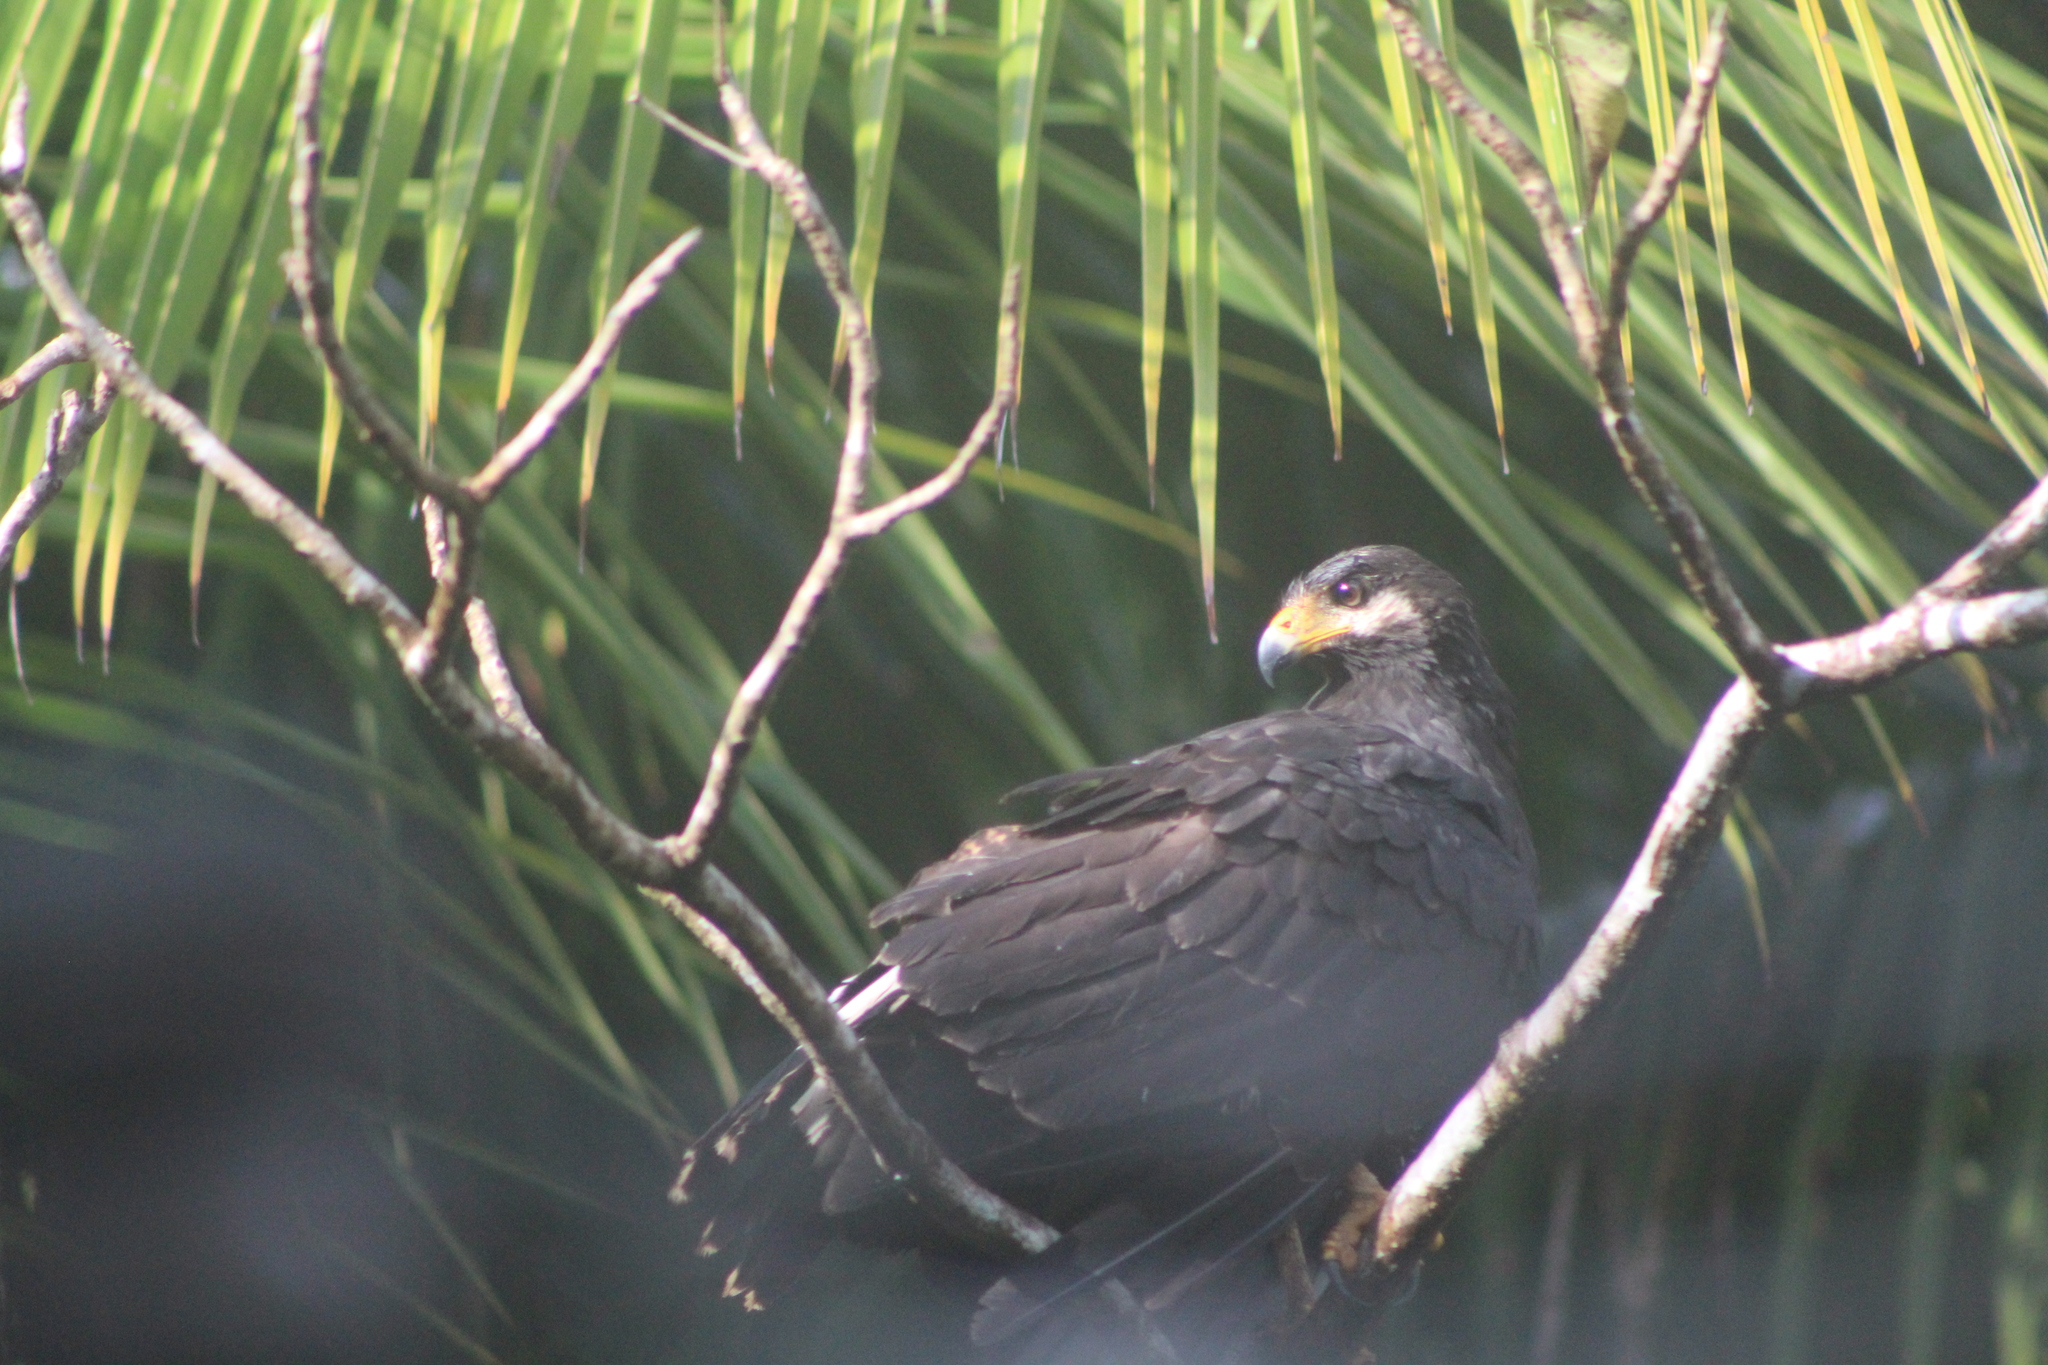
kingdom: Animalia
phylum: Chordata
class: Aves
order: Accipitriformes
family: Accipitridae
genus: Buteogallus
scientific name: Buteogallus anthracinus
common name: Common black hawk
